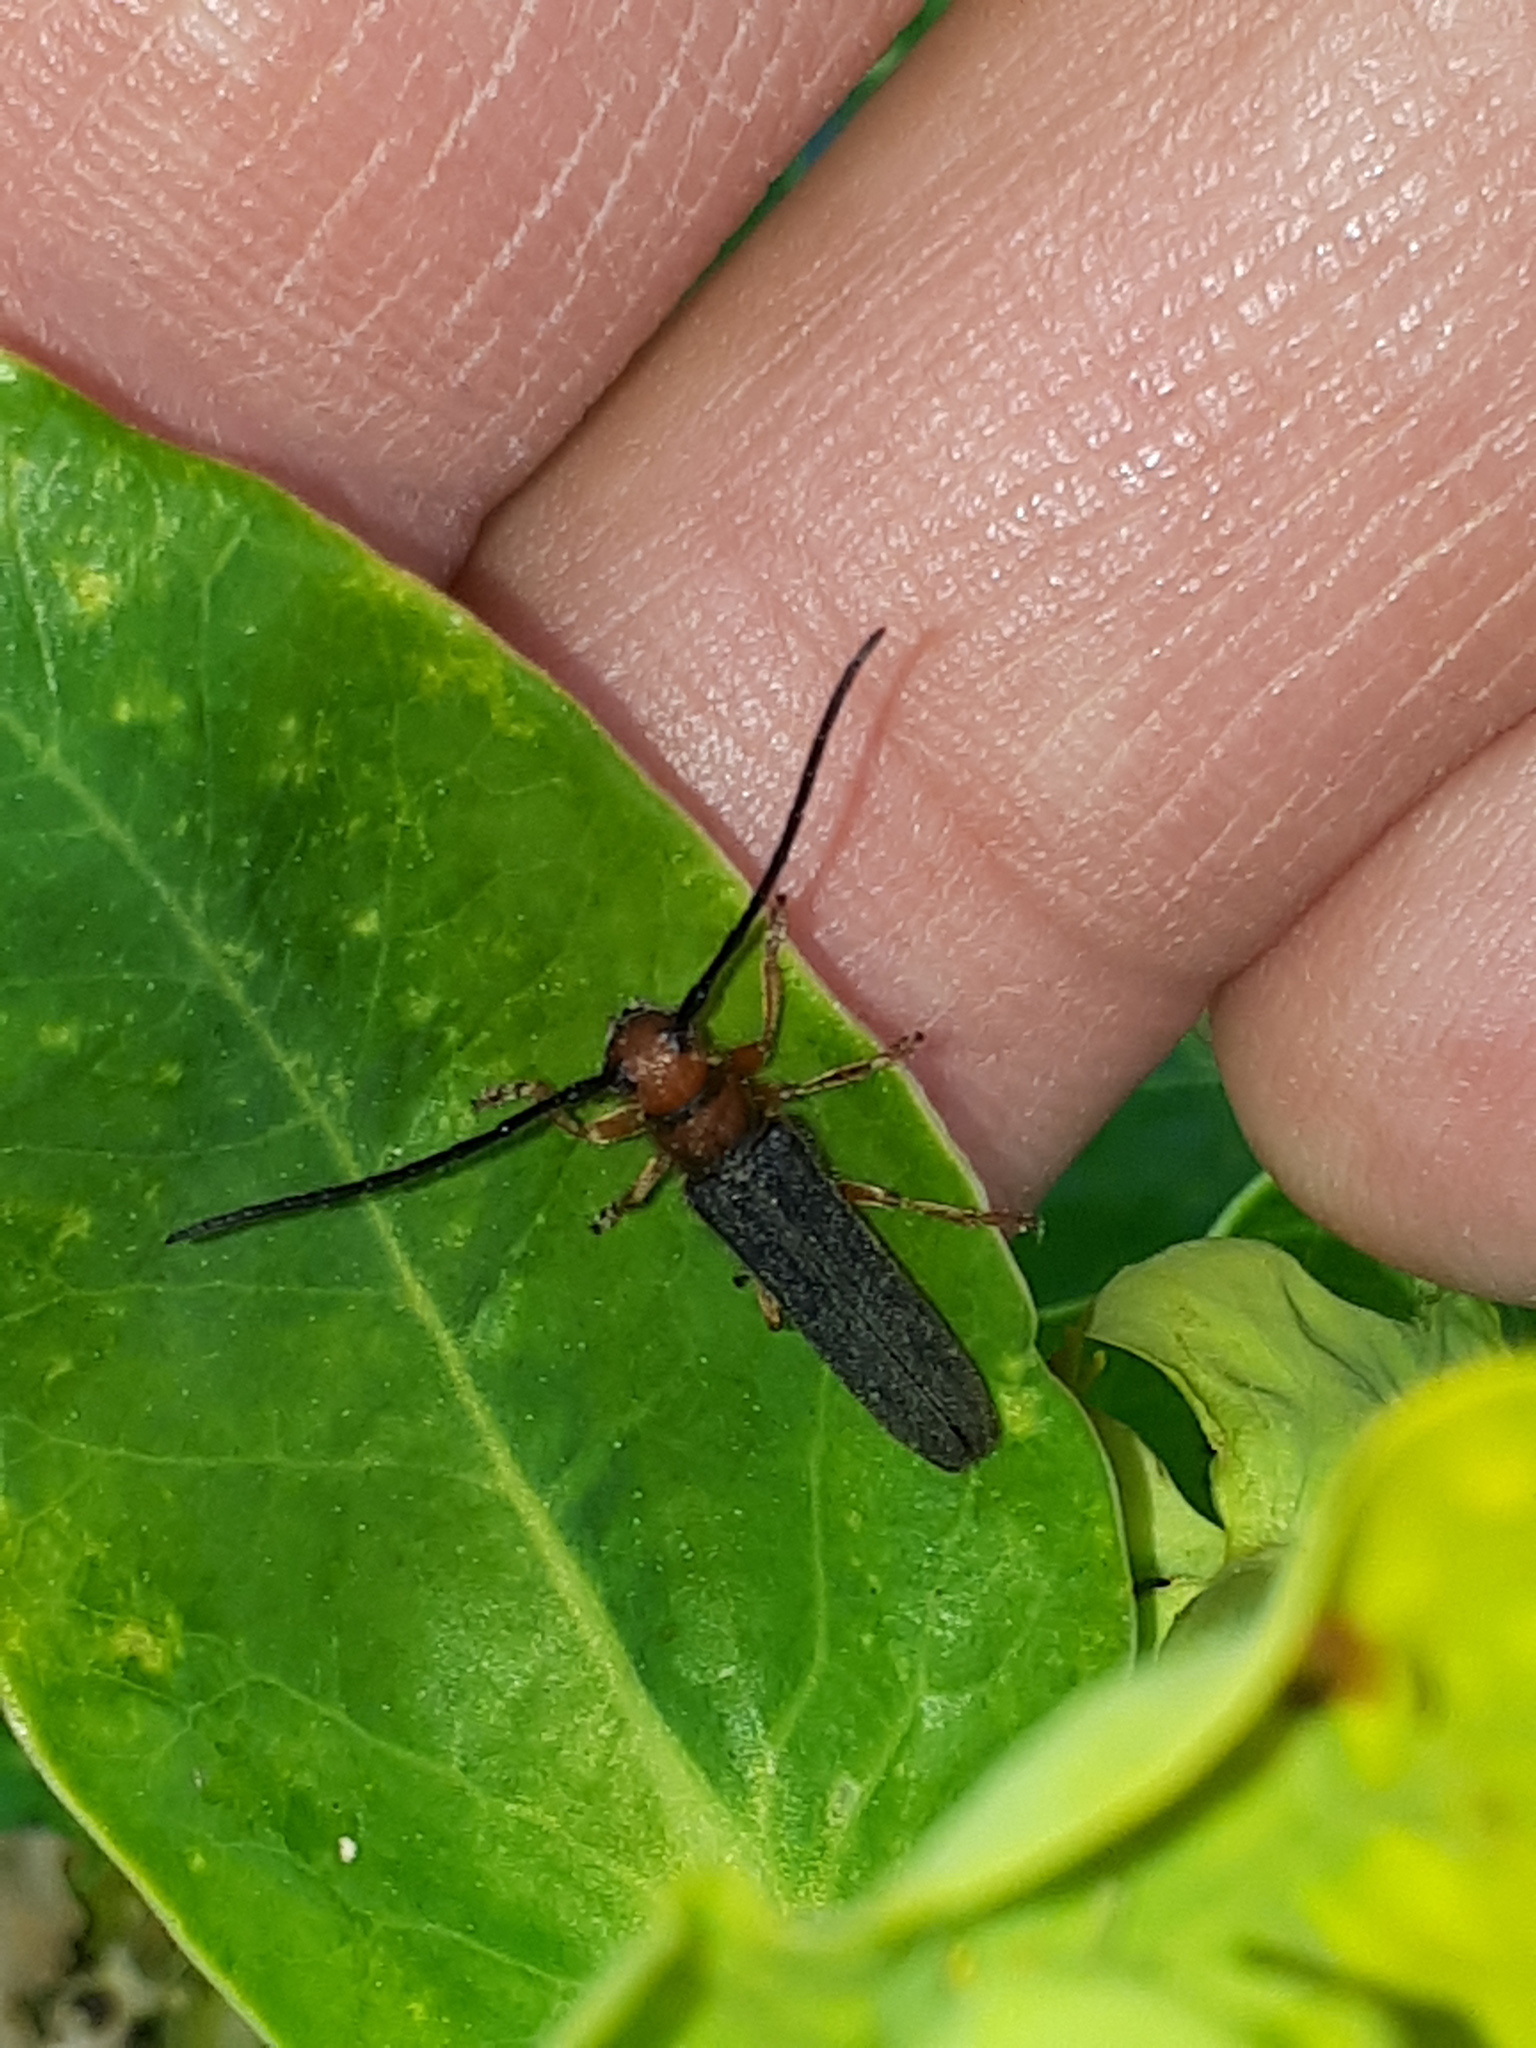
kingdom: Animalia
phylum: Arthropoda
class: Insecta
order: Coleoptera
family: Cerambycidae
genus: Oberea
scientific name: Oberea erythrocephala
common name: Leafy spurge stem boring beetle
